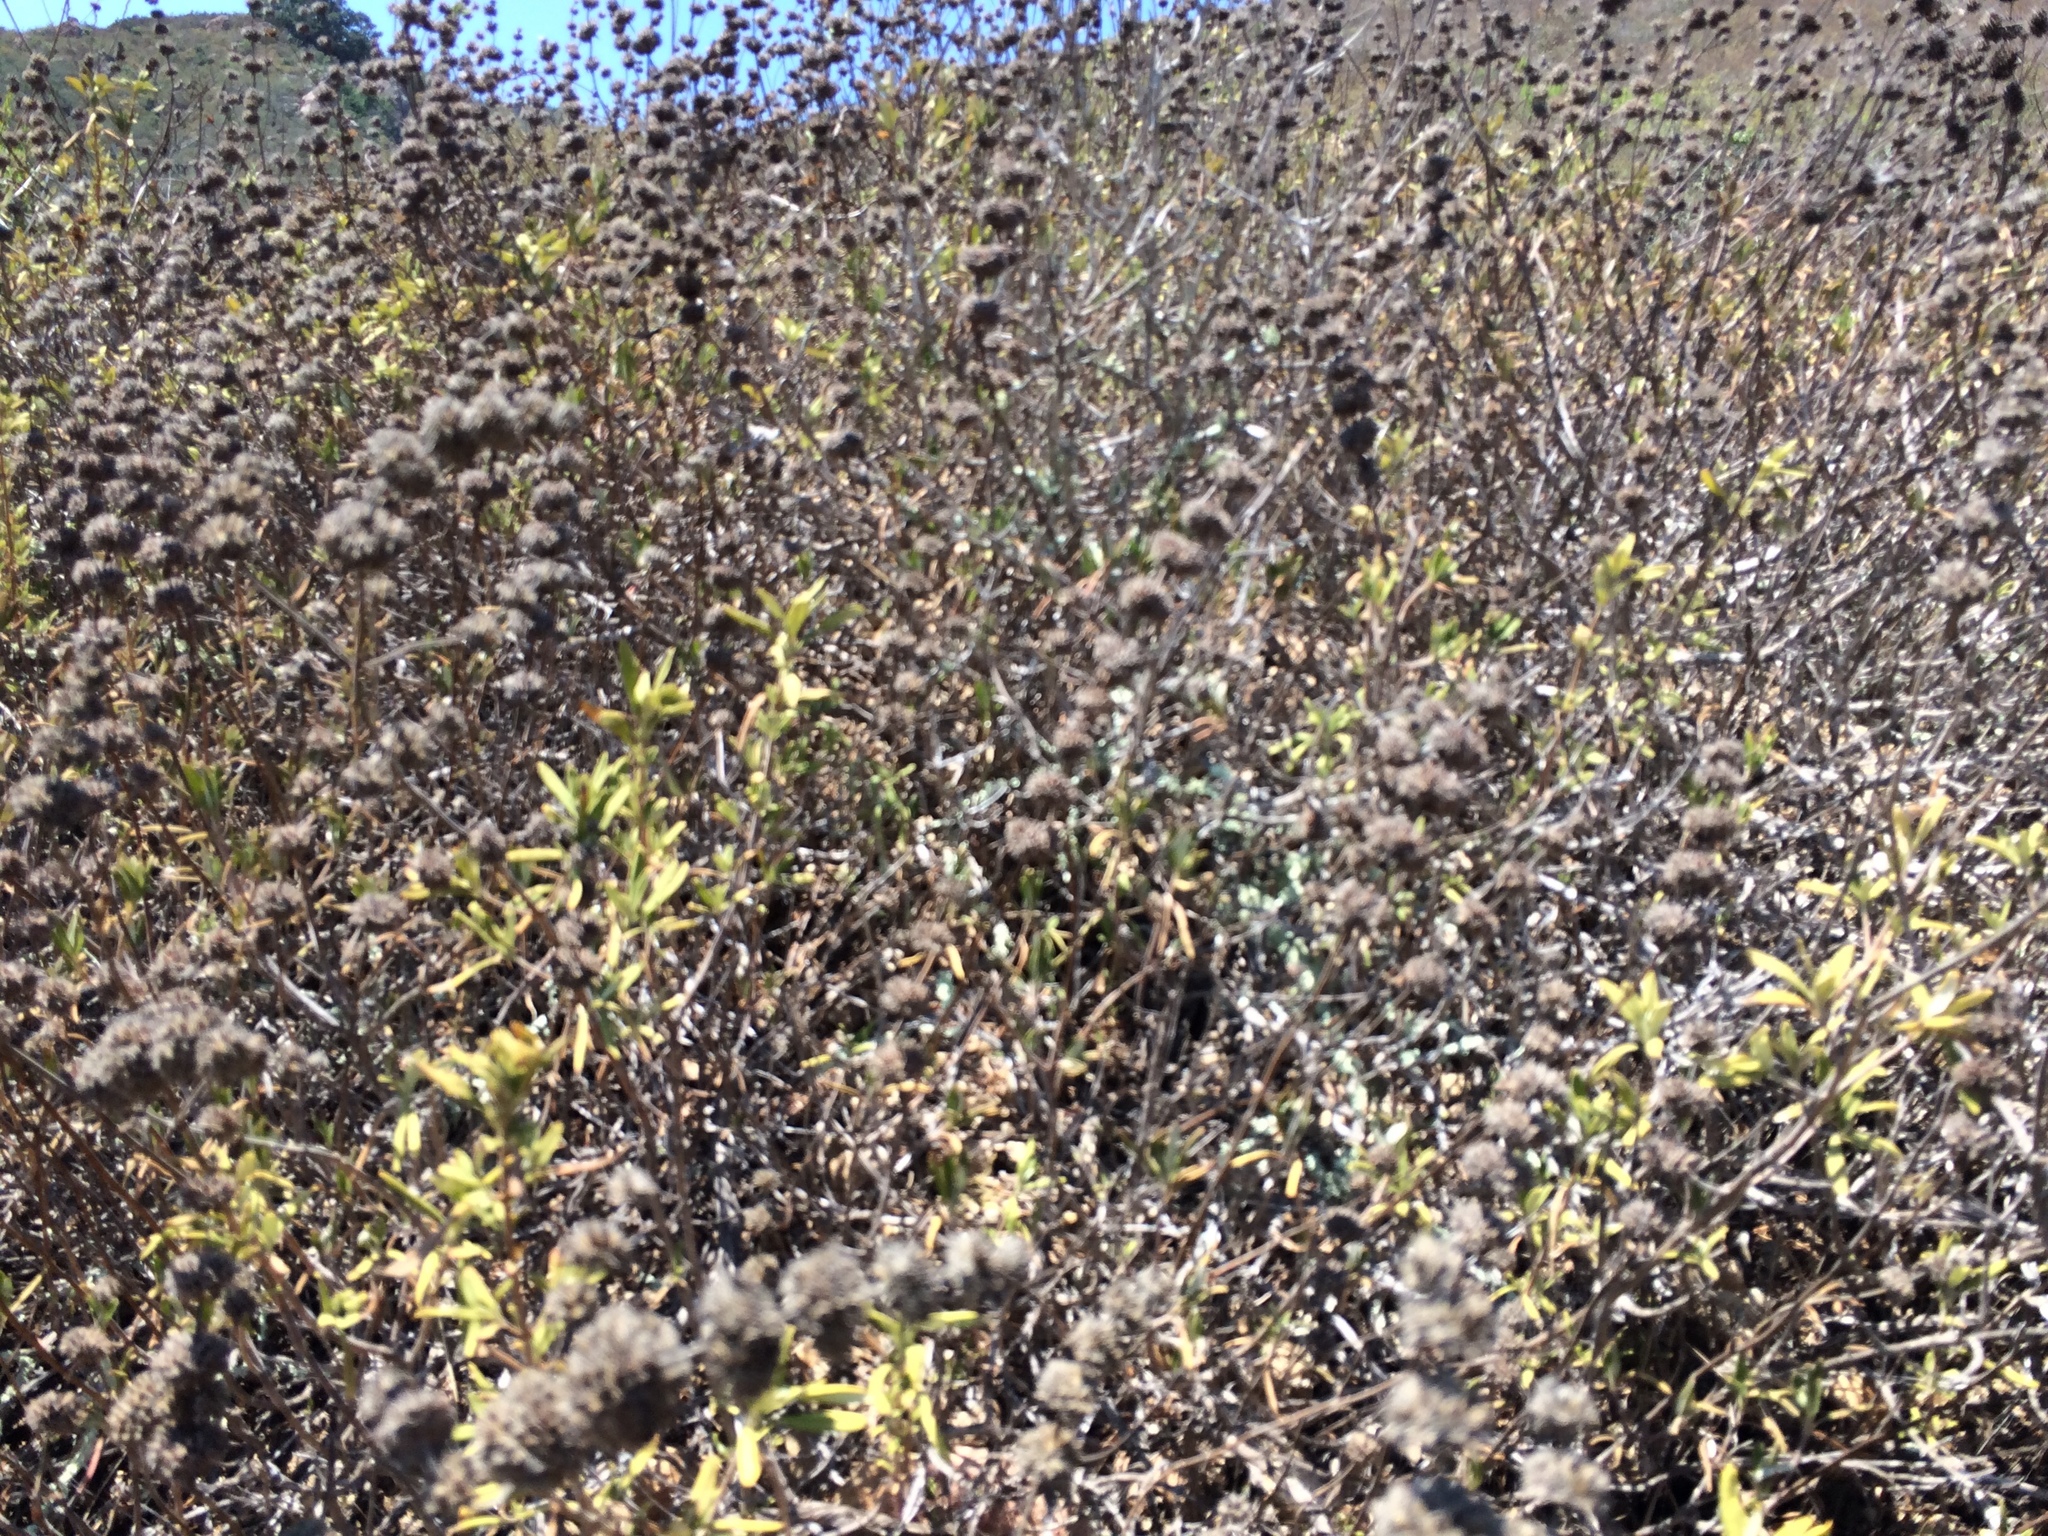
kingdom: Plantae
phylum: Tracheophyta
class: Magnoliopsida
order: Lamiales
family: Lamiaceae
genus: Salvia
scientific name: Salvia mellifera
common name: Black sage
